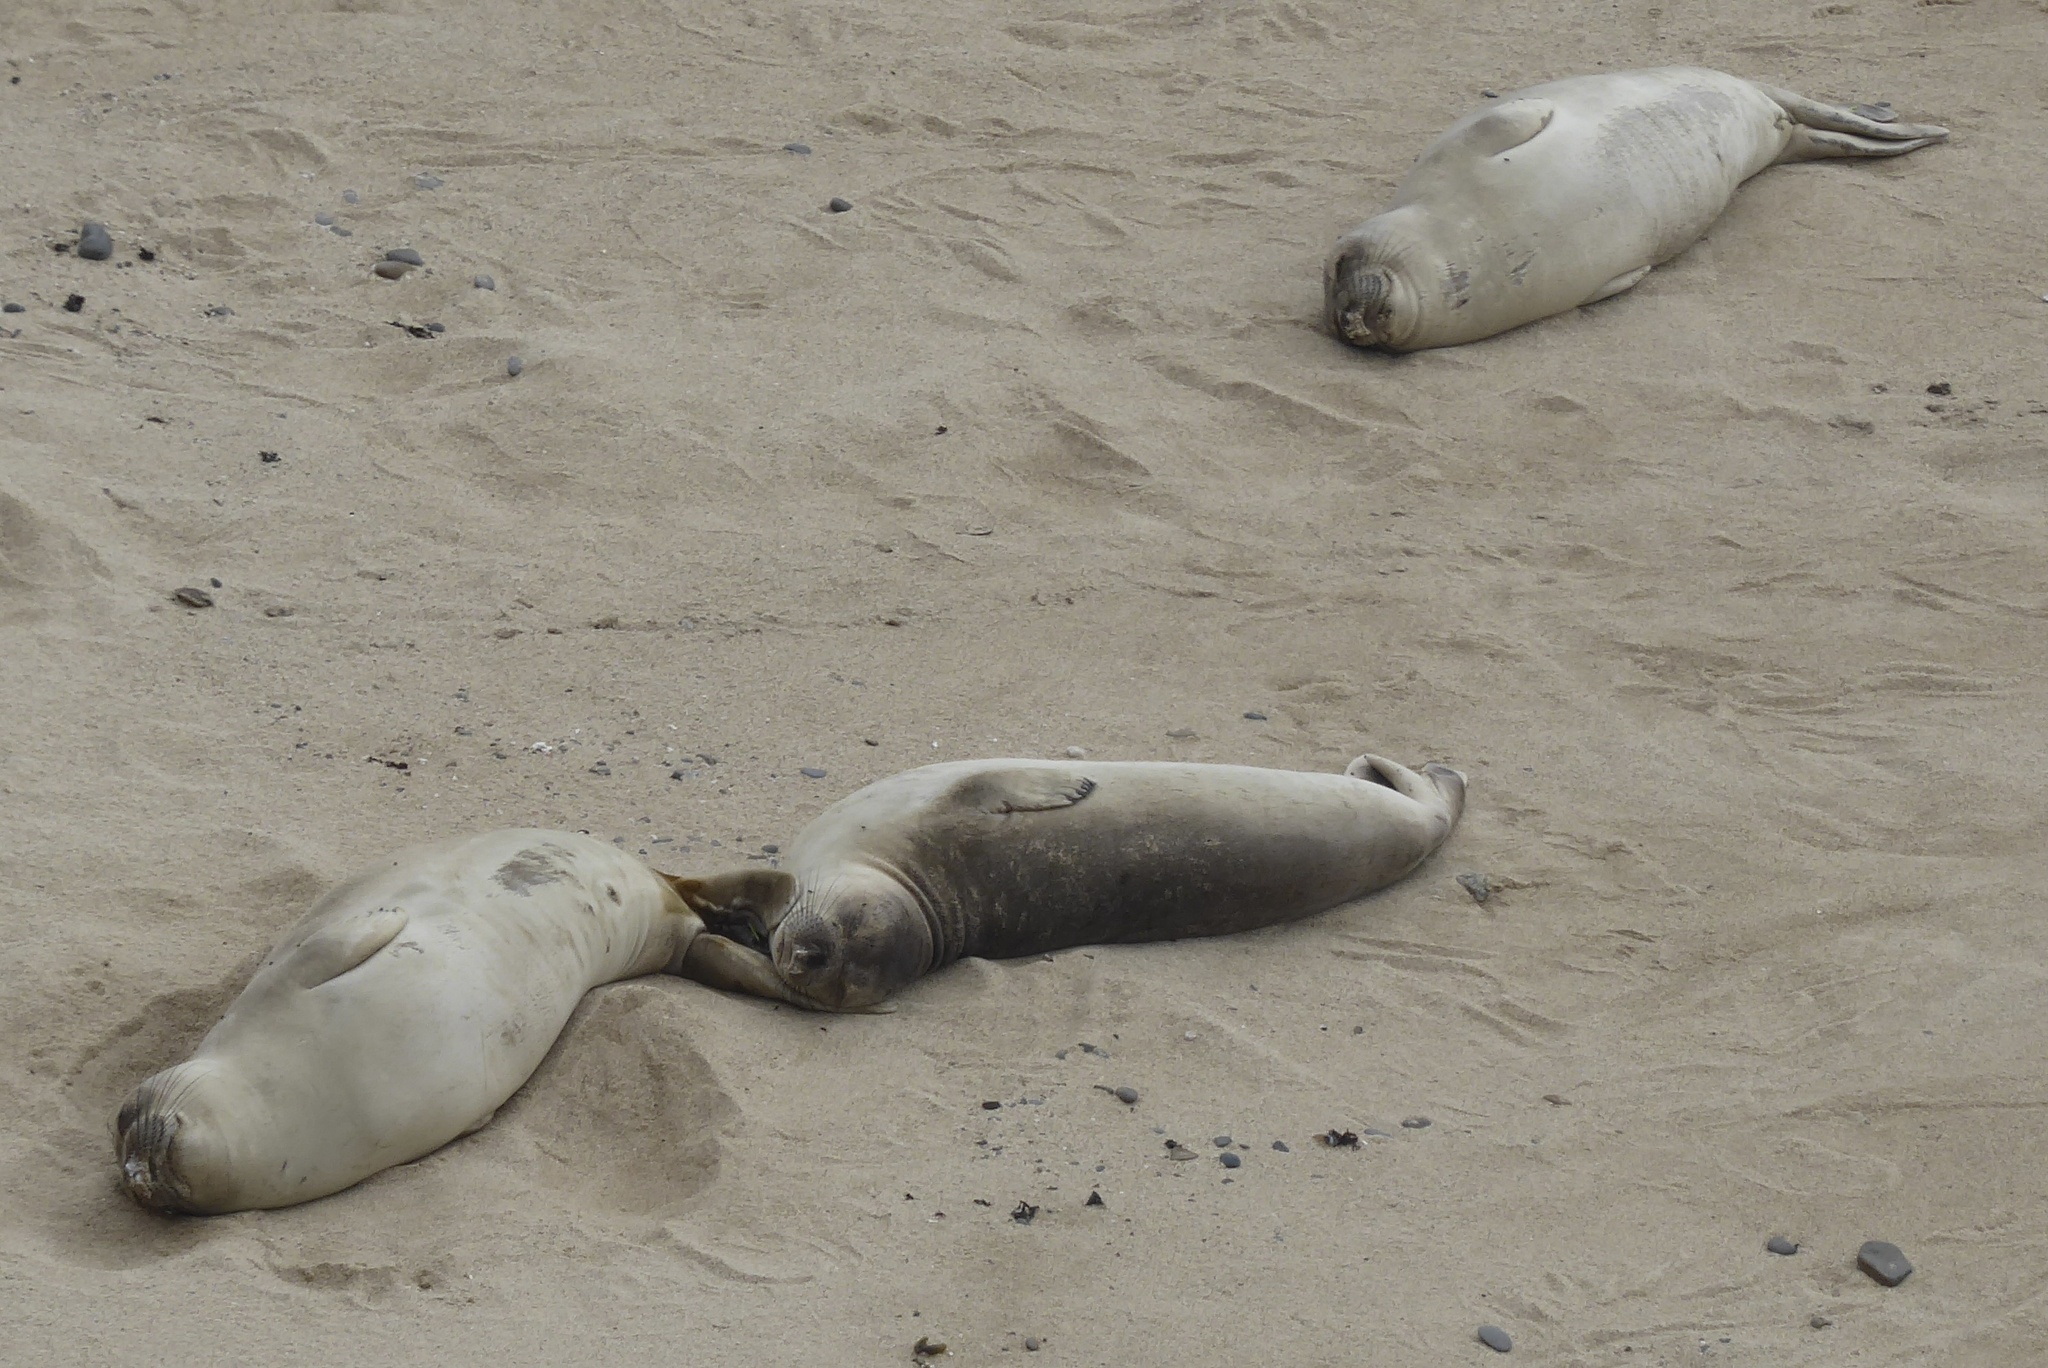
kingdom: Animalia
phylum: Chordata
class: Mammalia
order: Carnivora
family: Phocidae
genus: Mirounga
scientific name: Mirounga angustirostris
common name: Northern elephant seal
